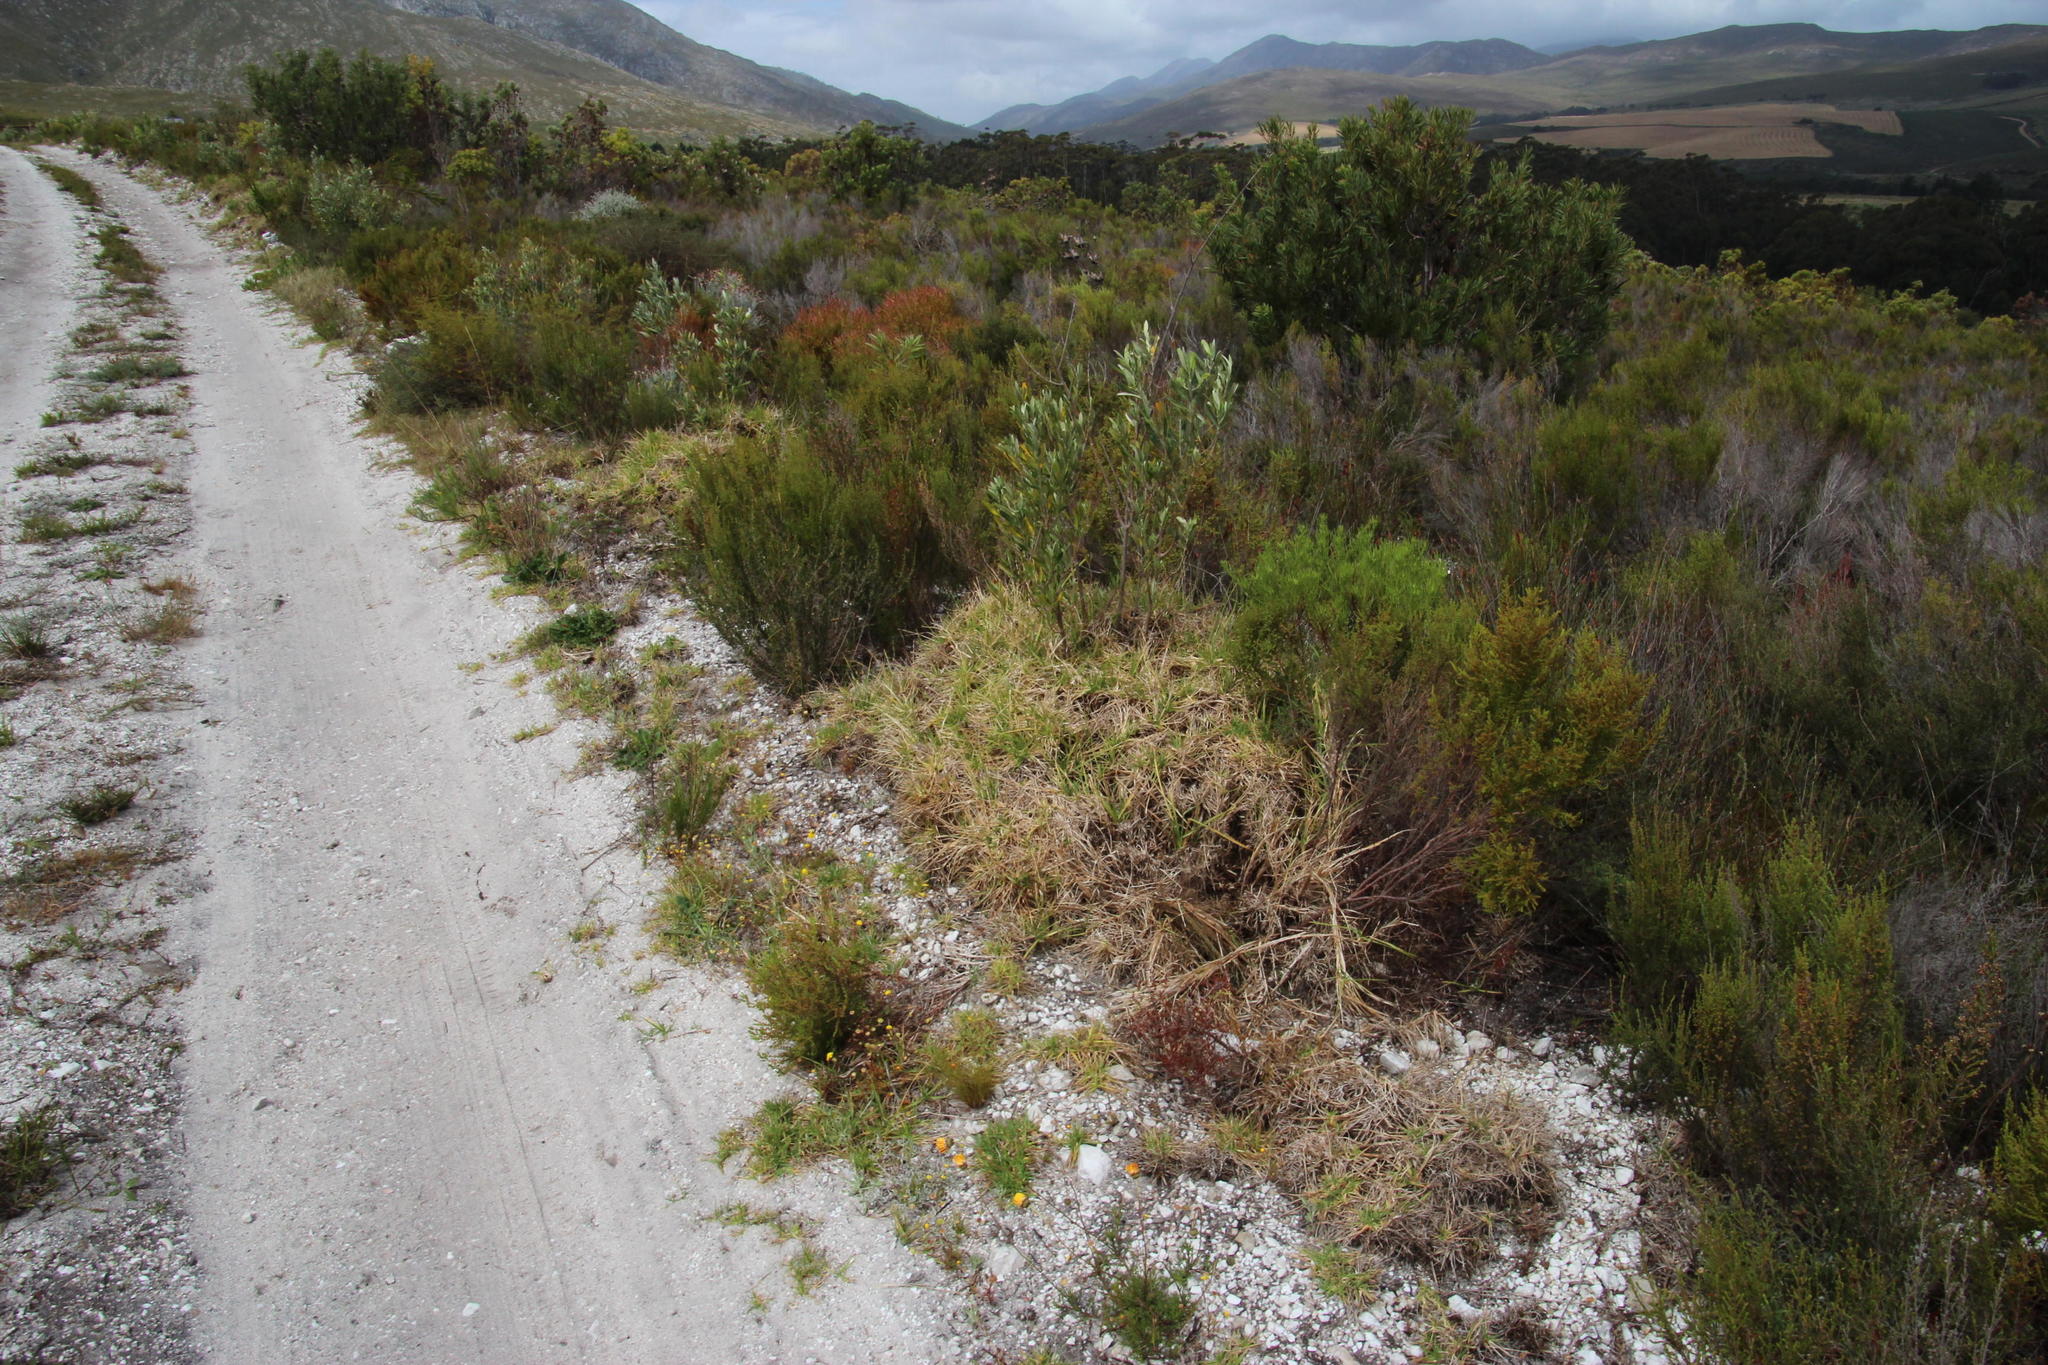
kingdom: Plantae
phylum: Tracheophyta
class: Liliopsida
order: Poales
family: Poaceae
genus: Cenchrus
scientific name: Cenchrus clandestinus
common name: Kikuyugrass
